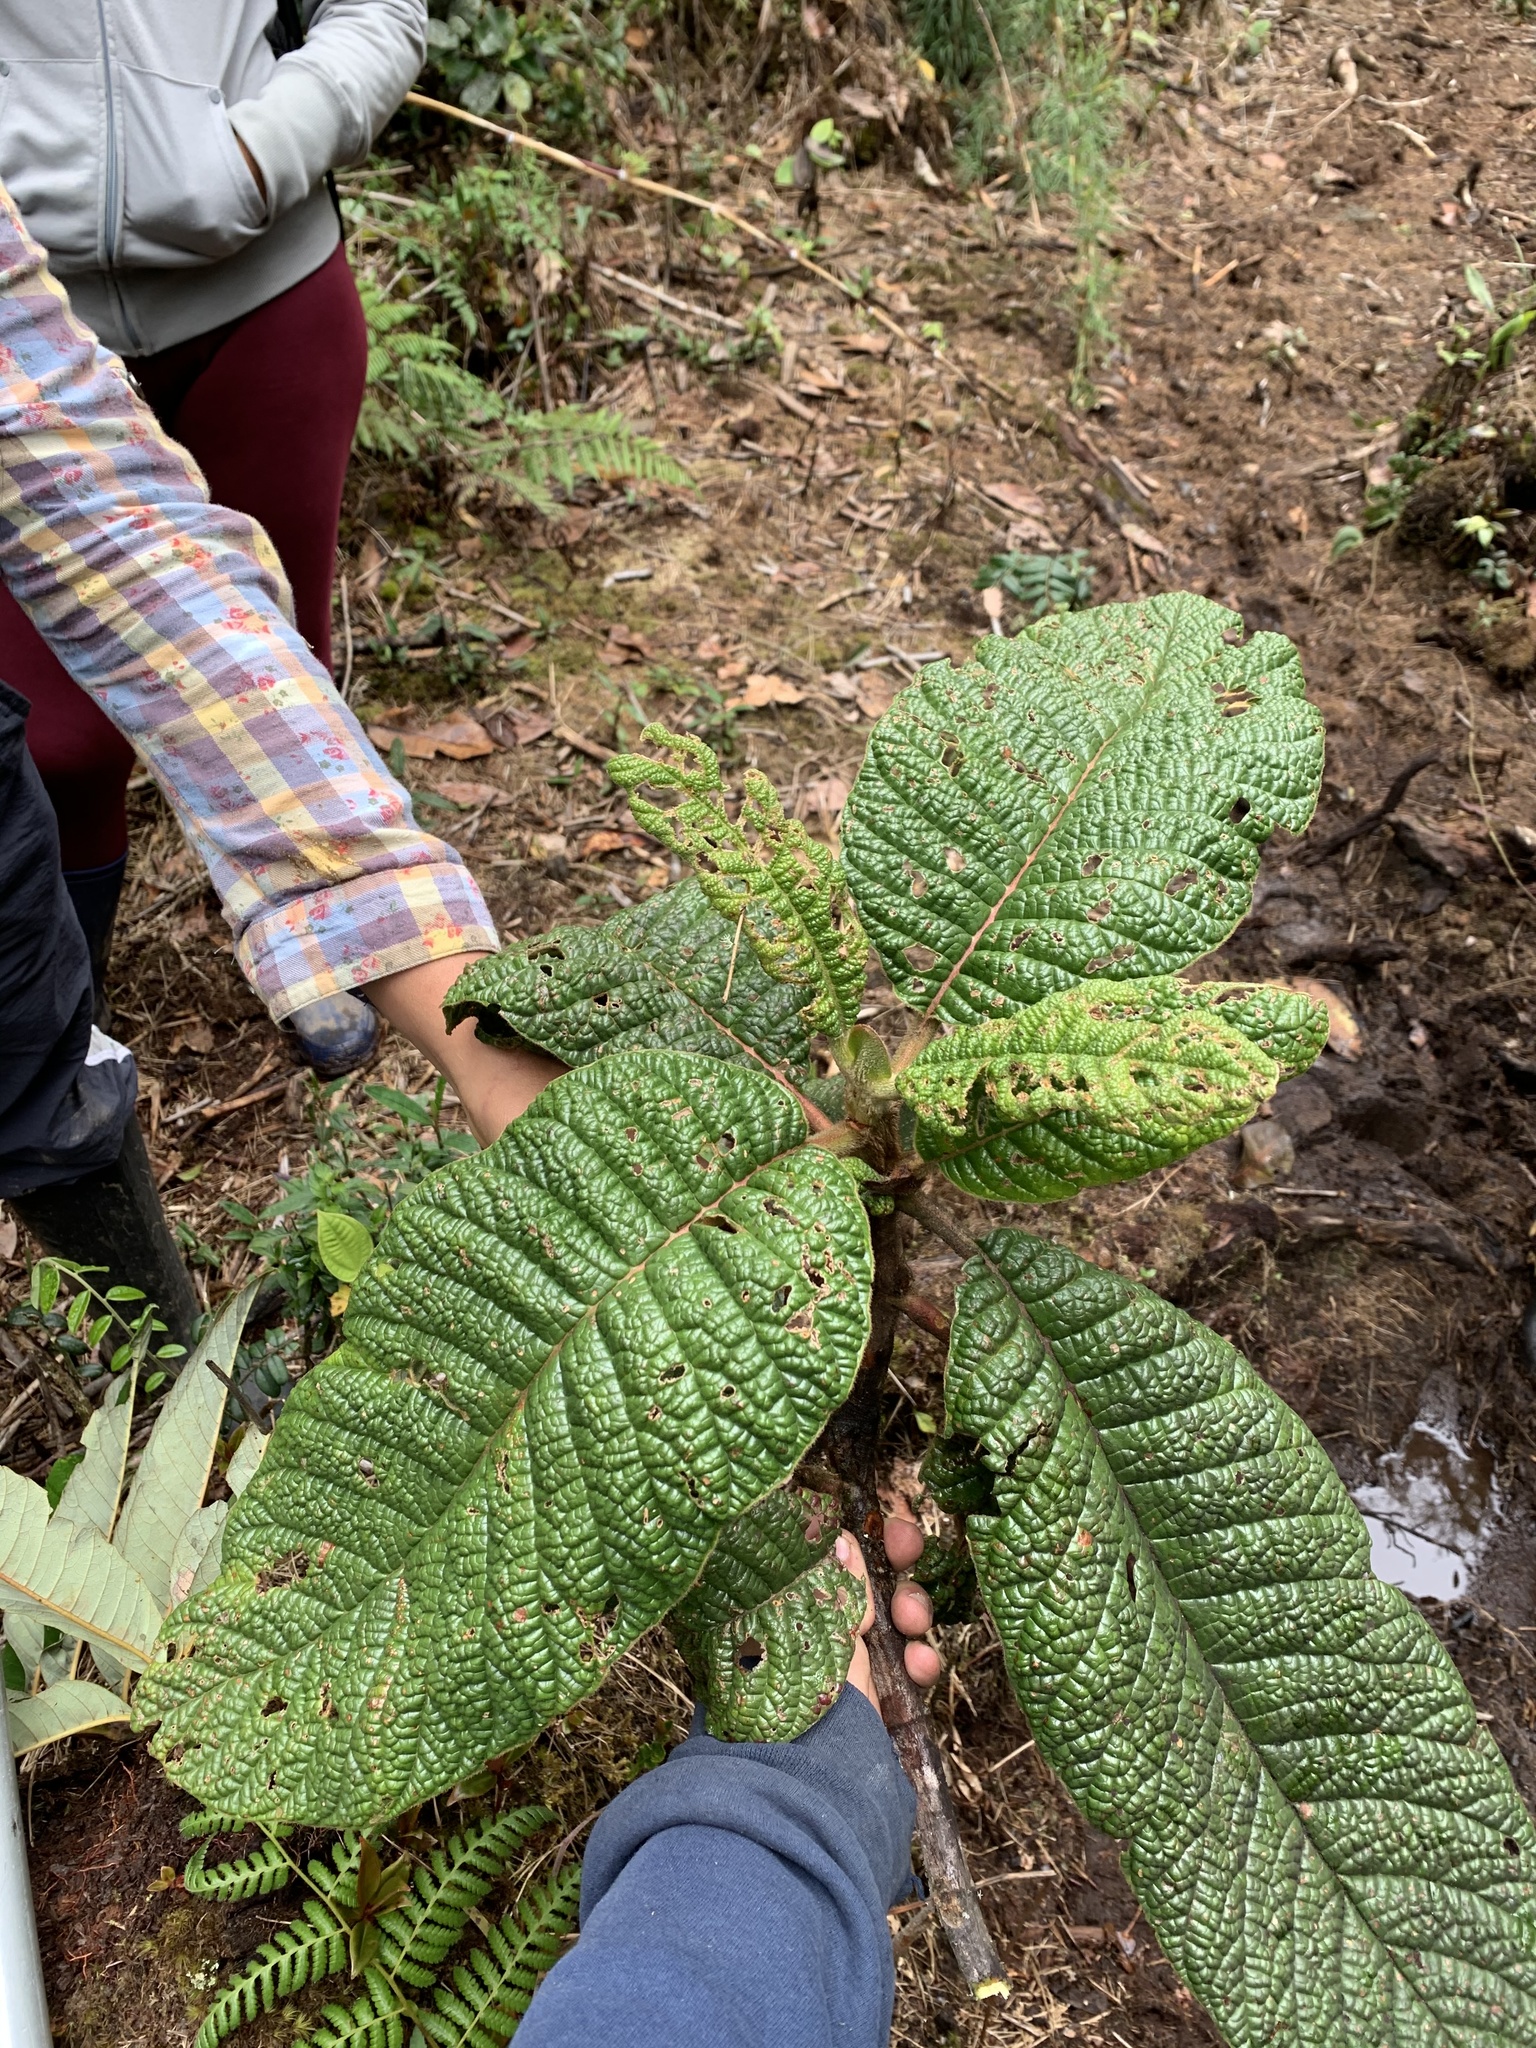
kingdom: Plantae
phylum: Tracheophyta
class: Magnoliopsida
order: Gentianales
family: Rubiaceae
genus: Cinchona
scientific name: Cinchona parabolica
